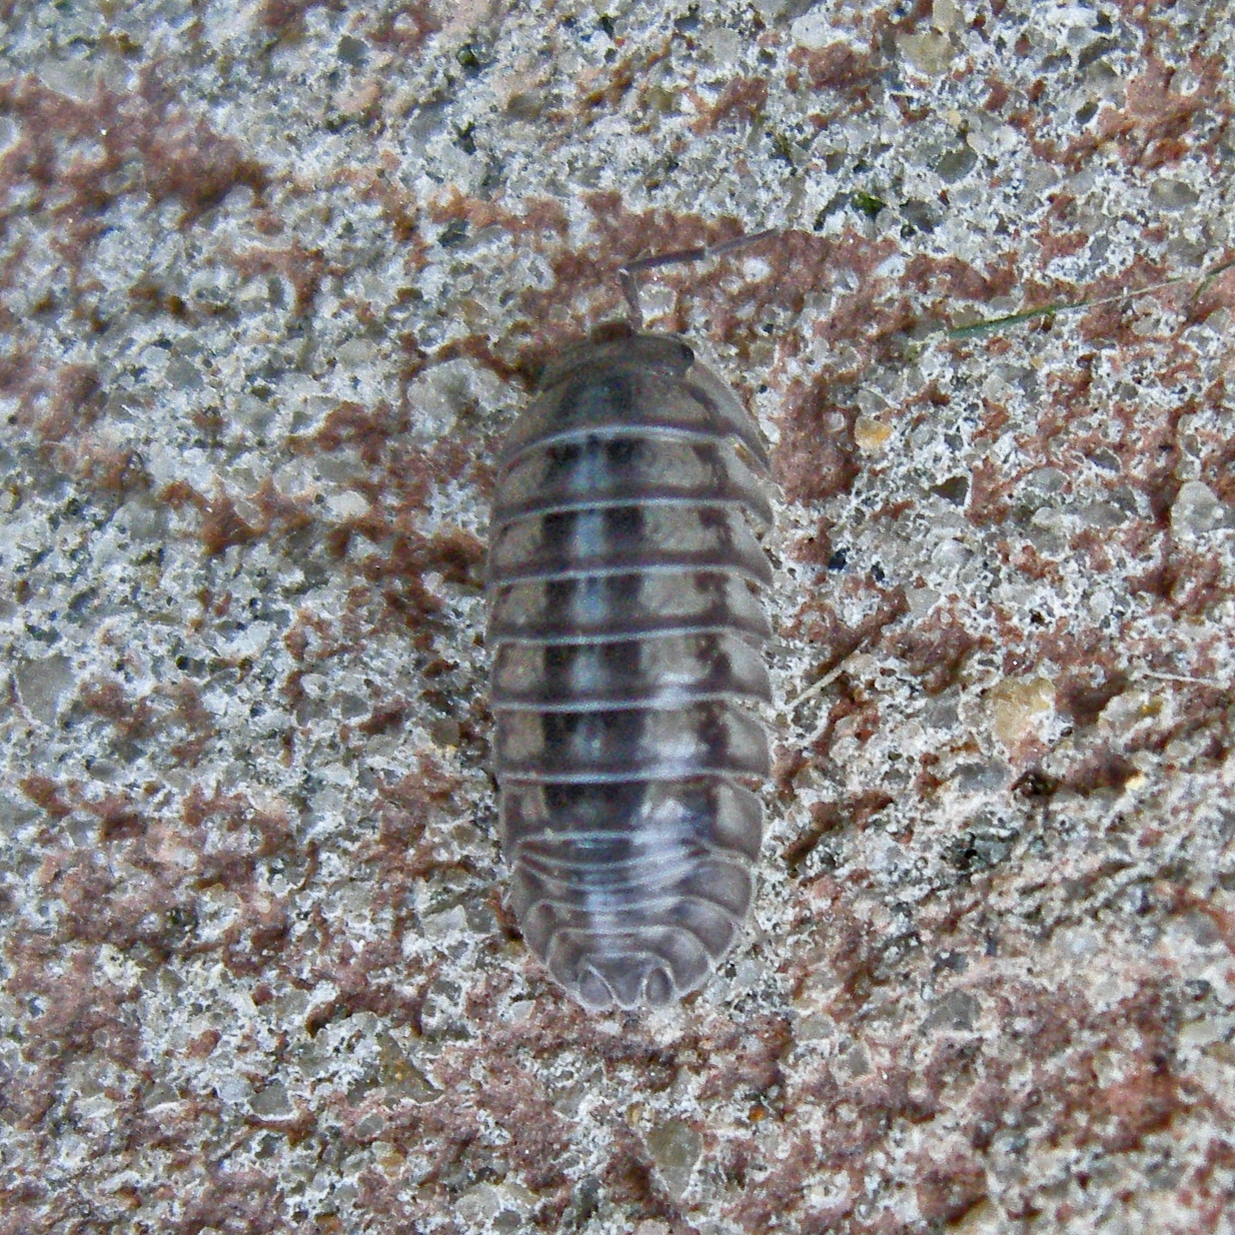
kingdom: Animalia
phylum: Arthropoda
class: Malacostraca
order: Isopoda
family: Armadillidiidae
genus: Armadillidium
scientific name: Armadillidium nasatum
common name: Isopod
